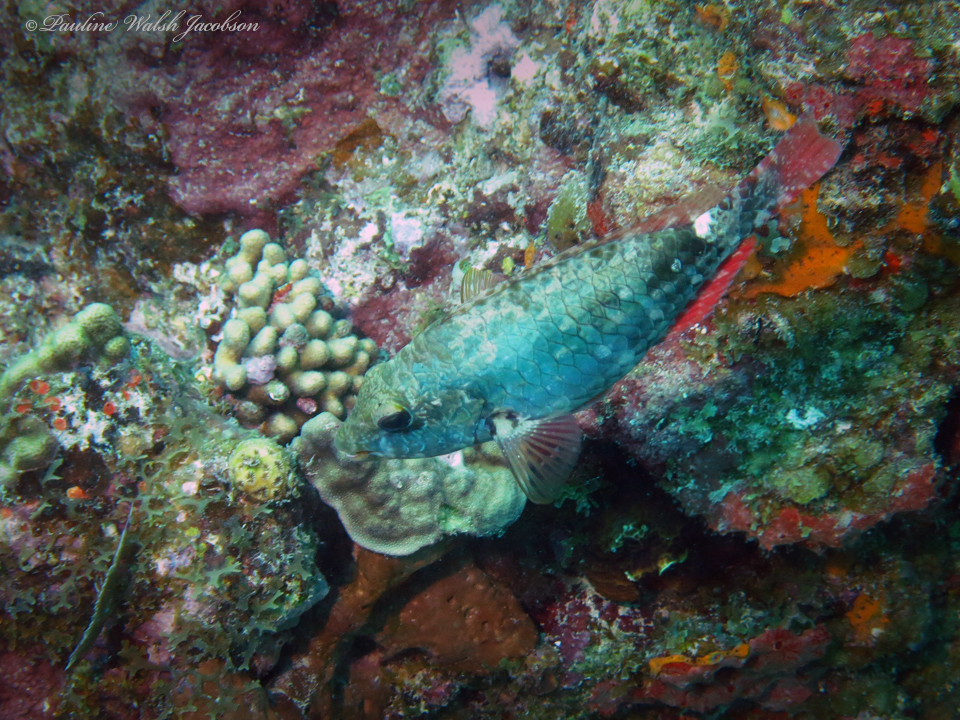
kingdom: Animalia
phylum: Chordata
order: Perciformes
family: Scaridae
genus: Sparisoma
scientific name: Sparisoma aurofrenatum
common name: Redband parrotfish
